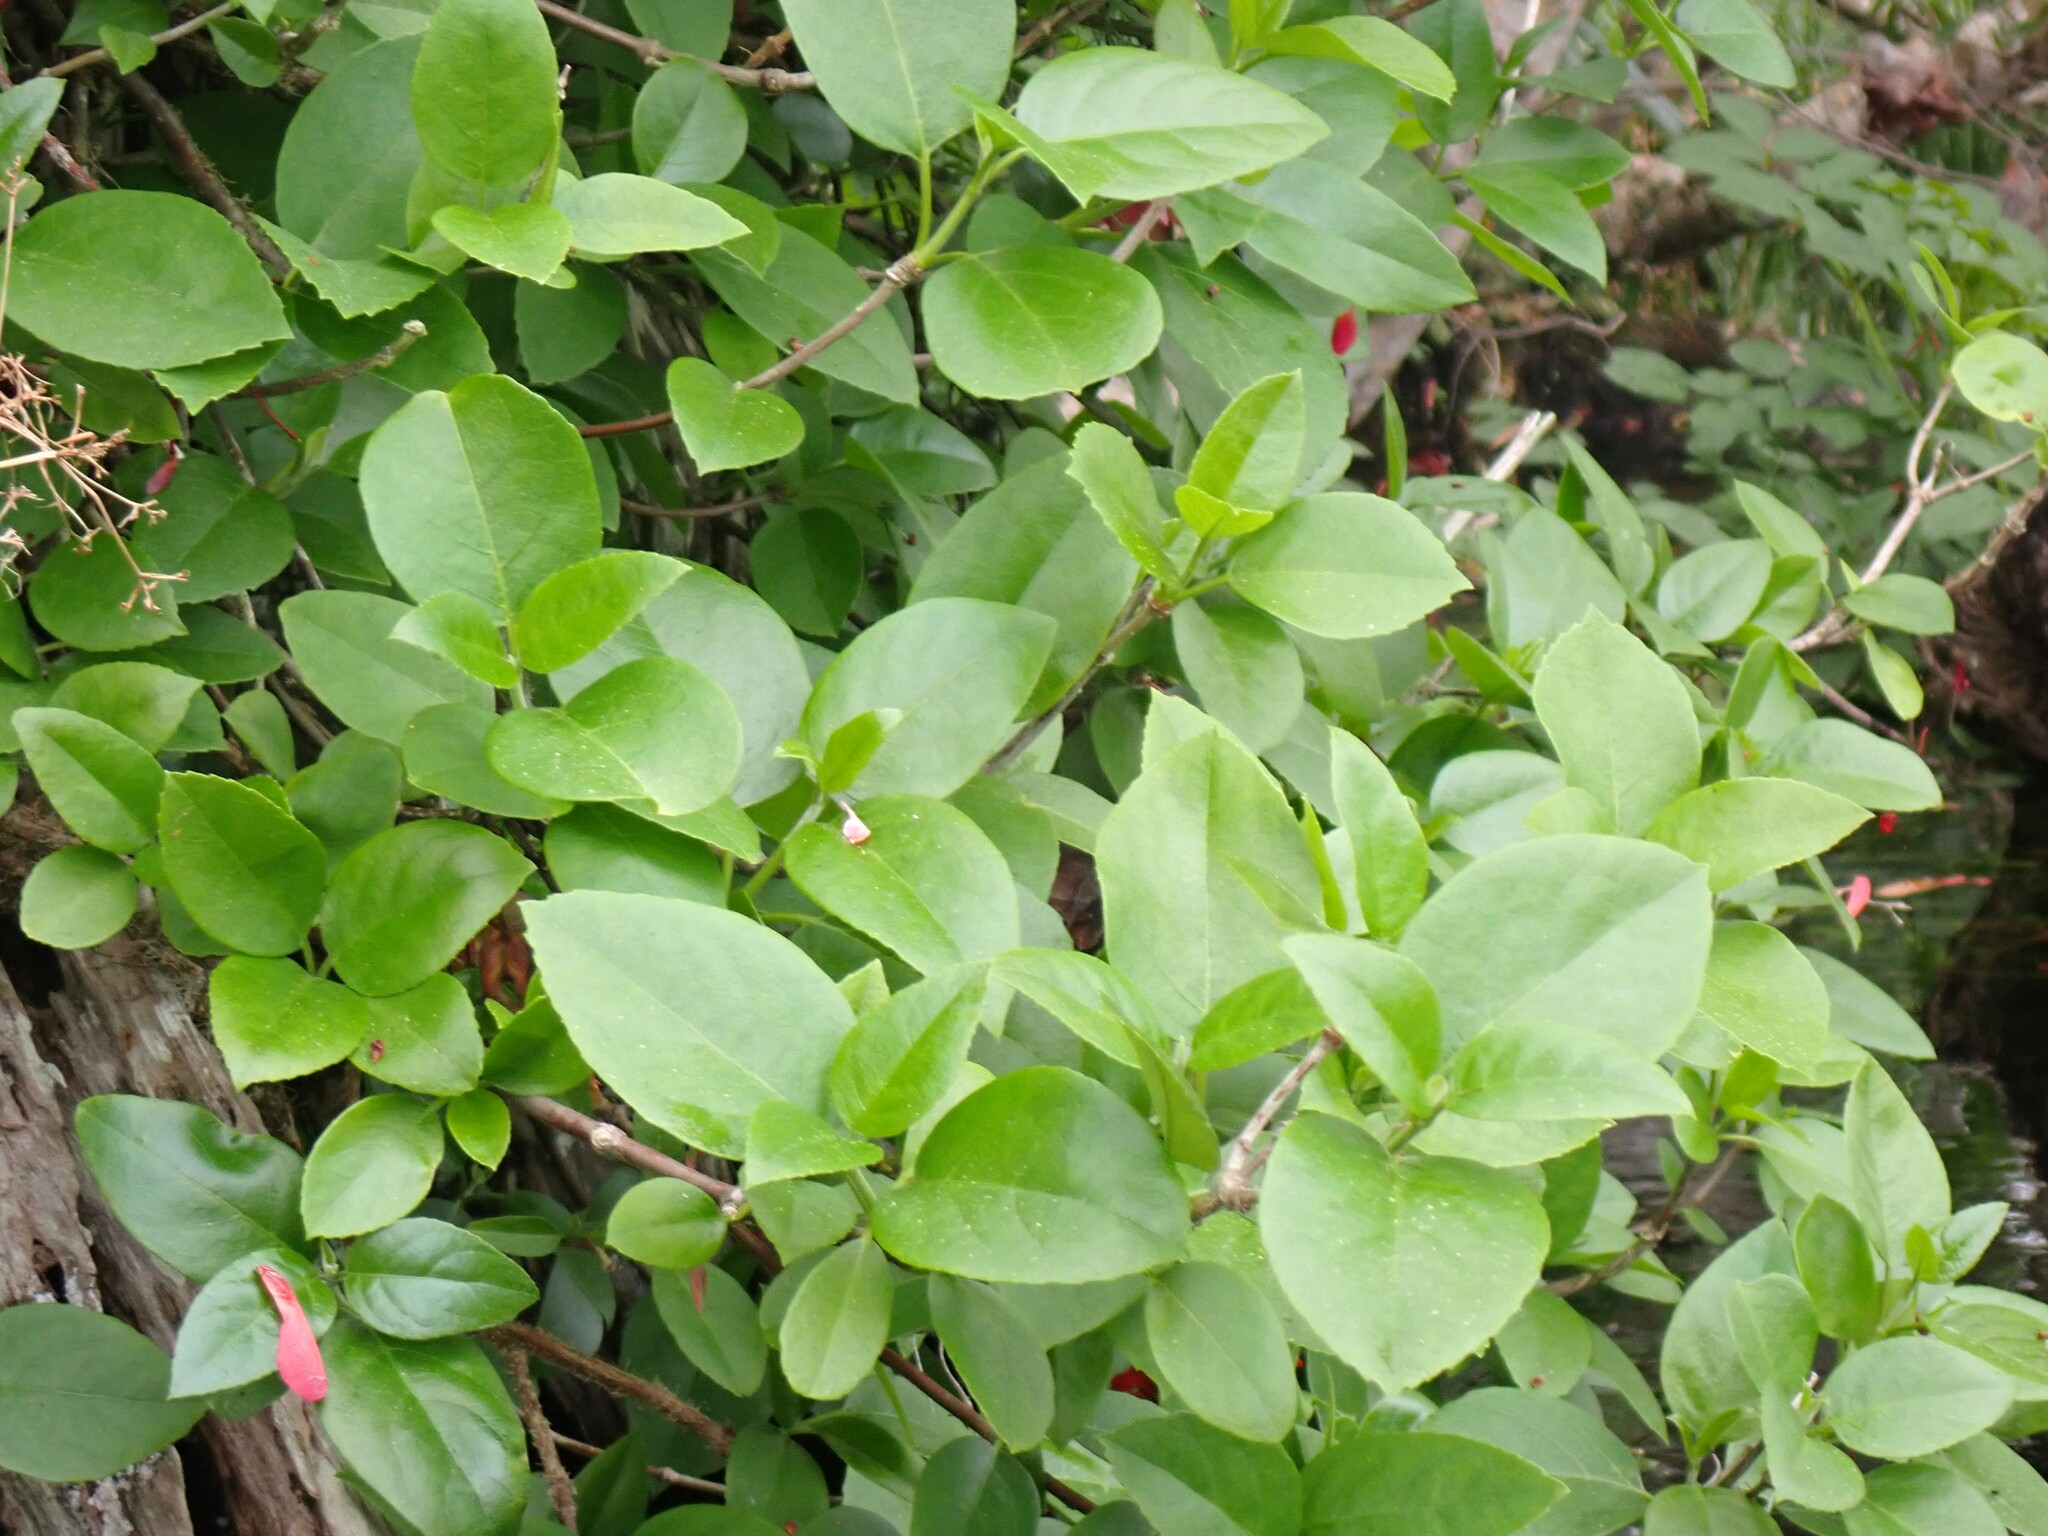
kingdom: Plantae
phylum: Tracheophyta
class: Magnoliopsida
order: Cornales
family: Hydrangeaceae
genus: Hydrangea
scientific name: Hydrangea barbara
